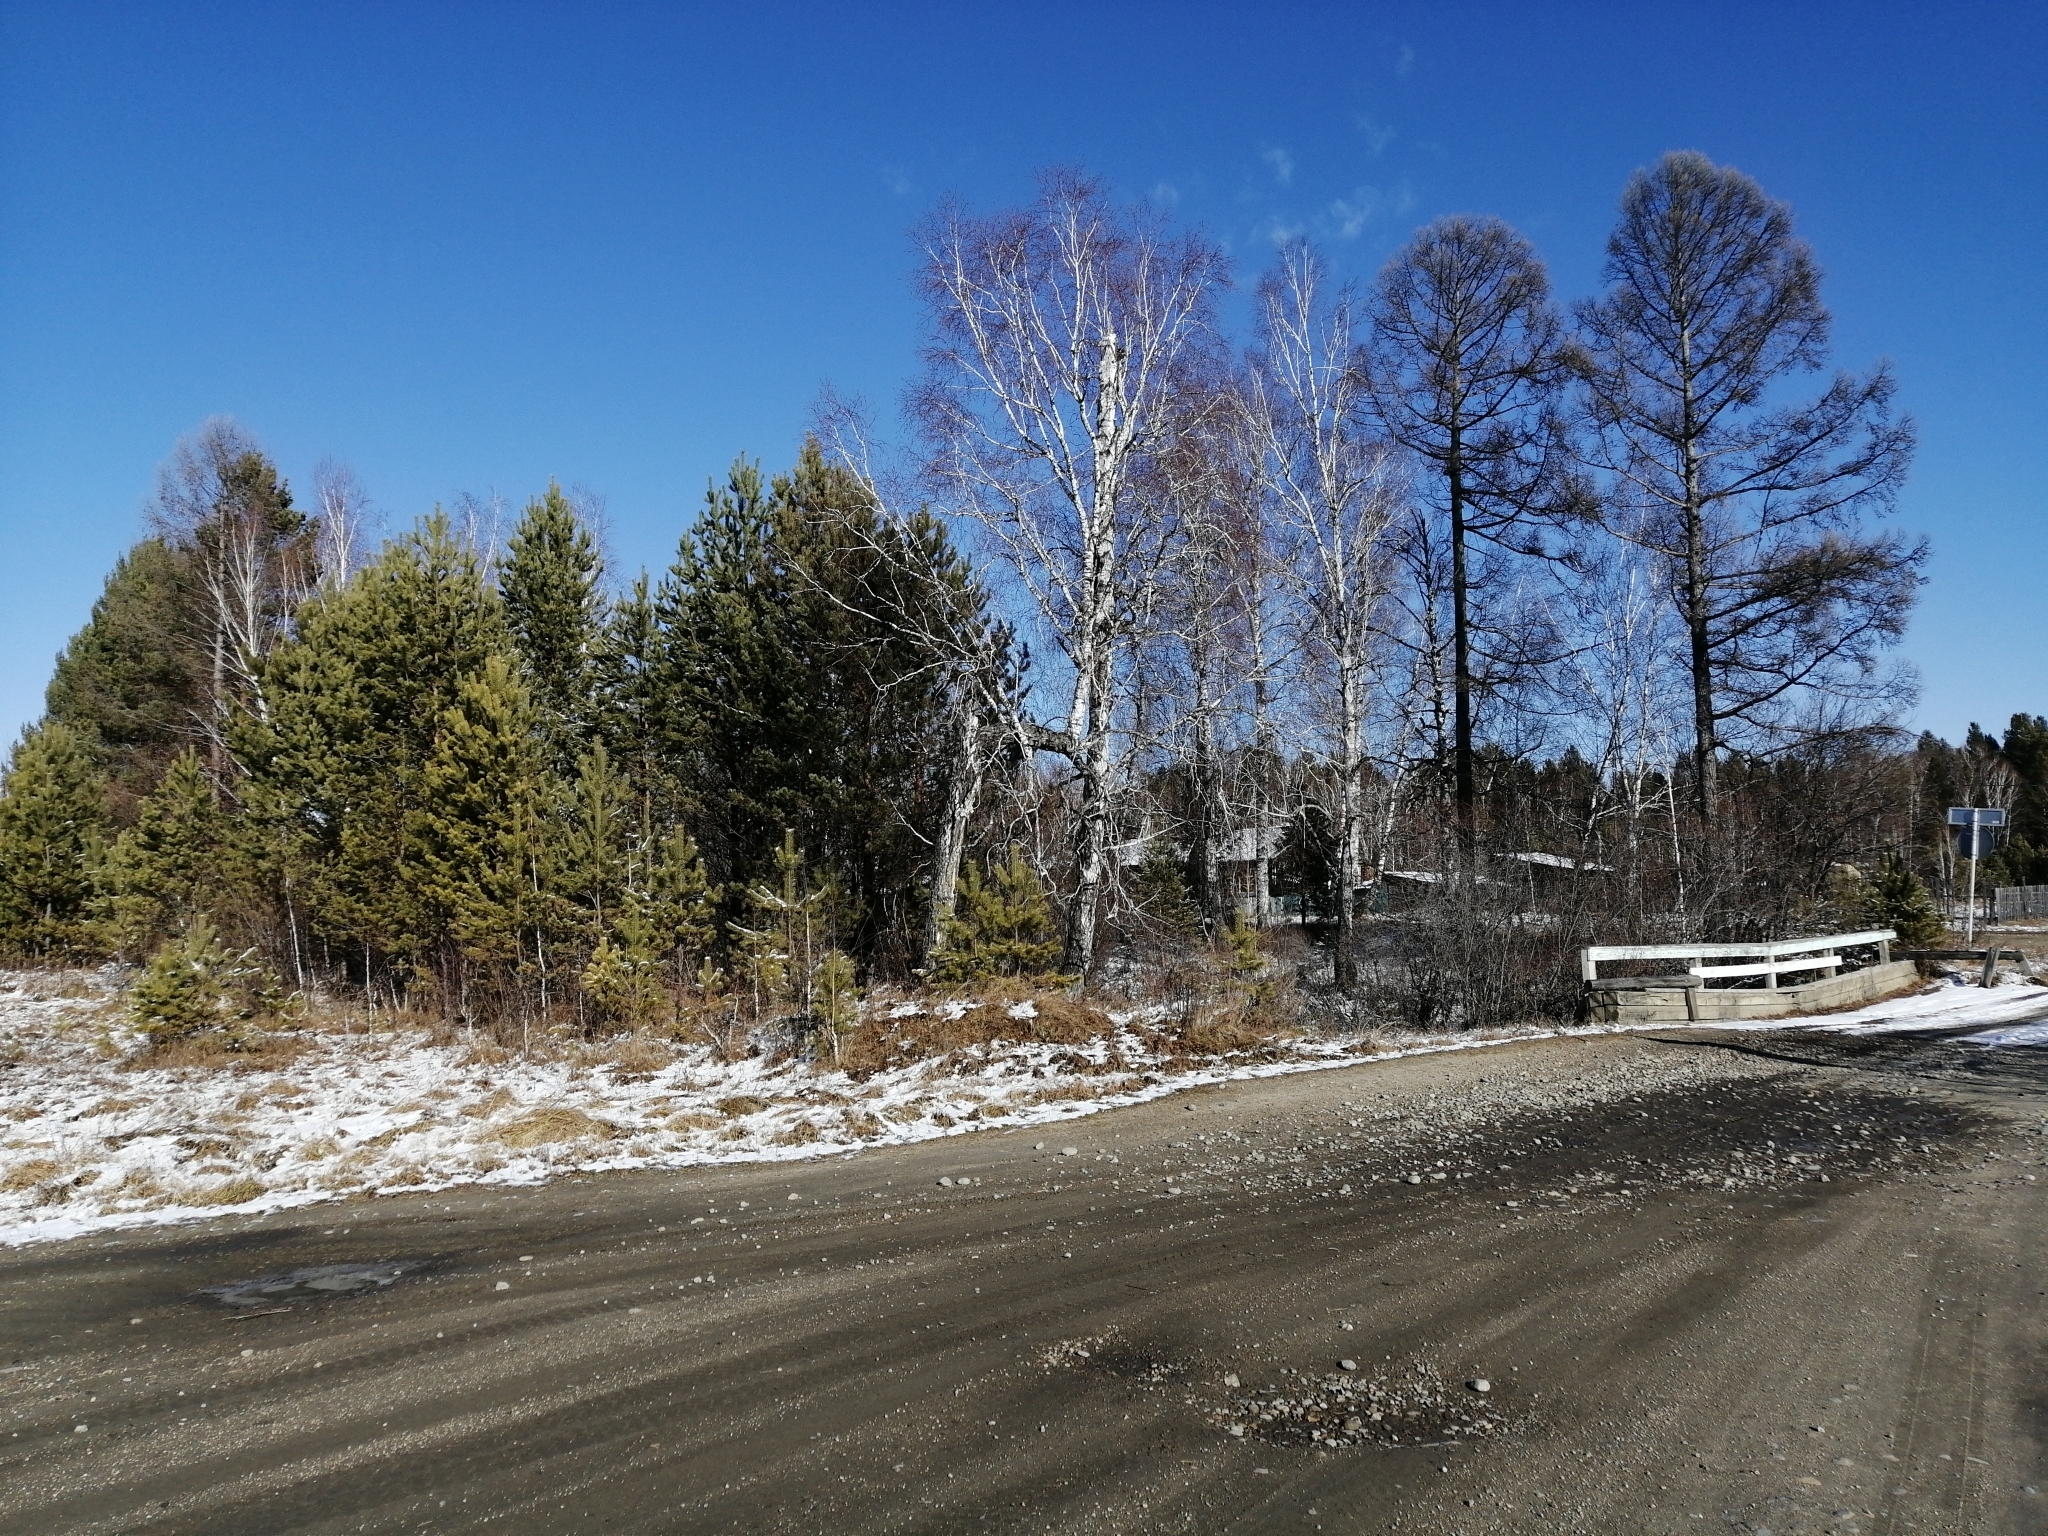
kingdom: Plantae
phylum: Tracheophyta
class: Pinopsida
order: Pinales
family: Pinaceae
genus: Pinus
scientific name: Pinus sylvestris
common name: Scots pine
